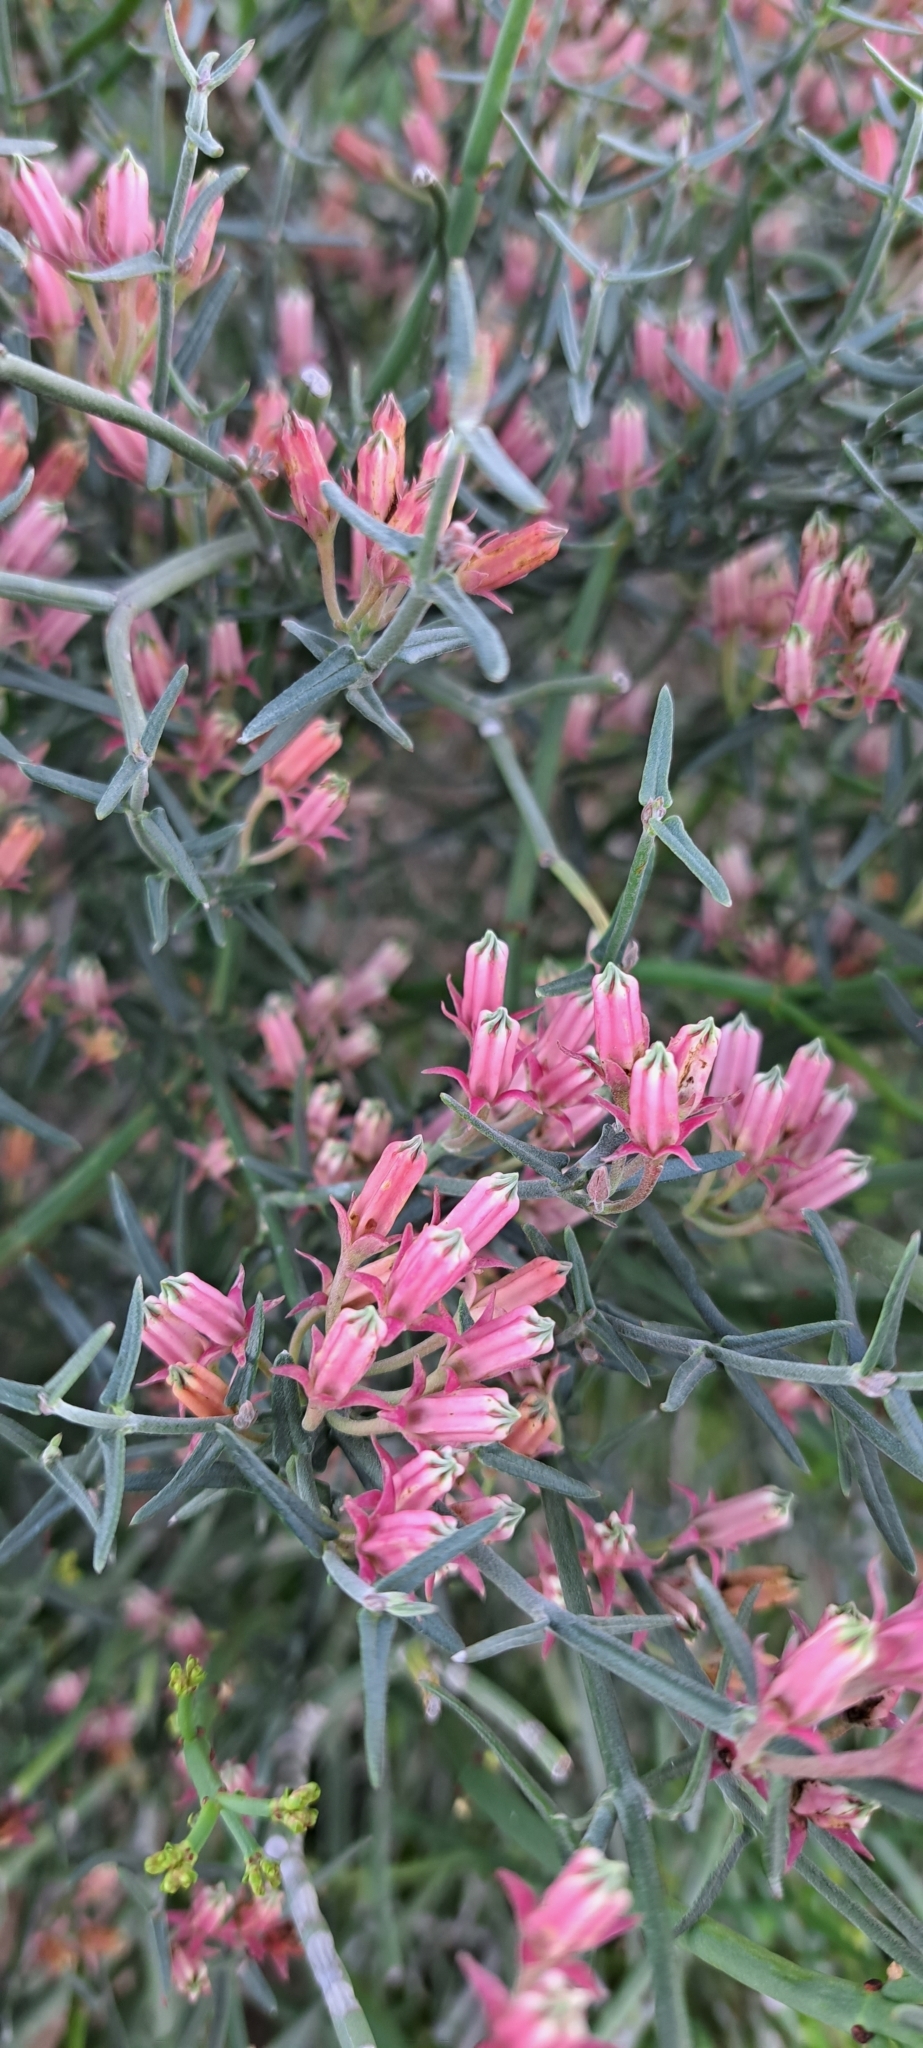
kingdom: Plantae
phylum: Tracheophyta
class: Magnoliopsida
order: Gentianales
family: Apocynaceae
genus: Microloma
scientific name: Microloma sagittatum
